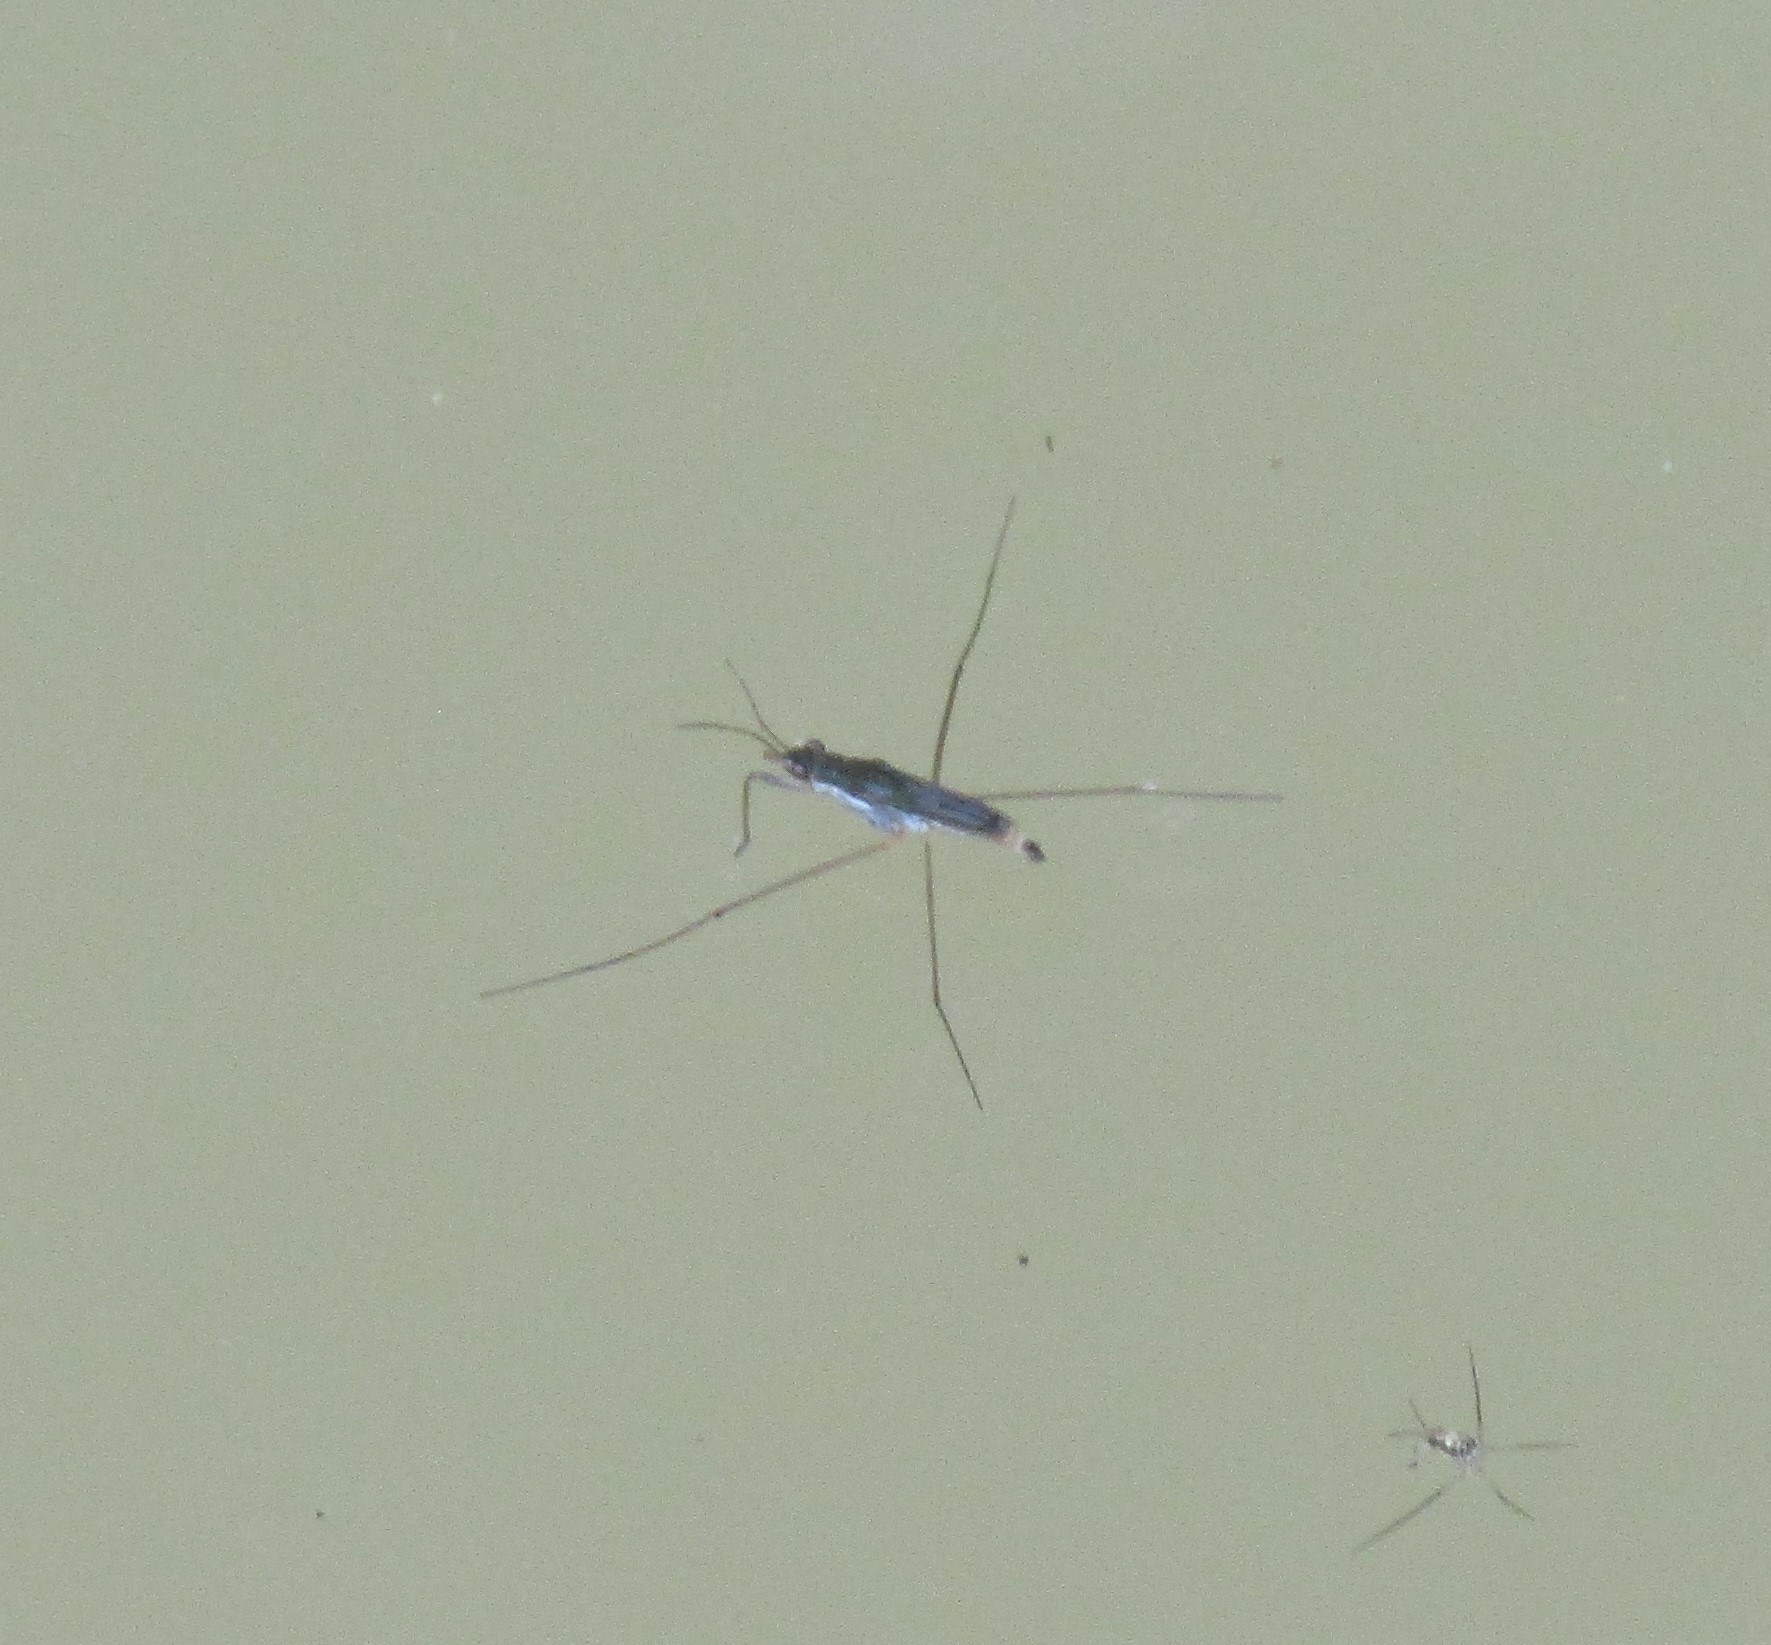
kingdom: Animalia
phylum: Arthropoda
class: Insecta
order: Hemiptera
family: Gerridae
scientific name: Gerridae
